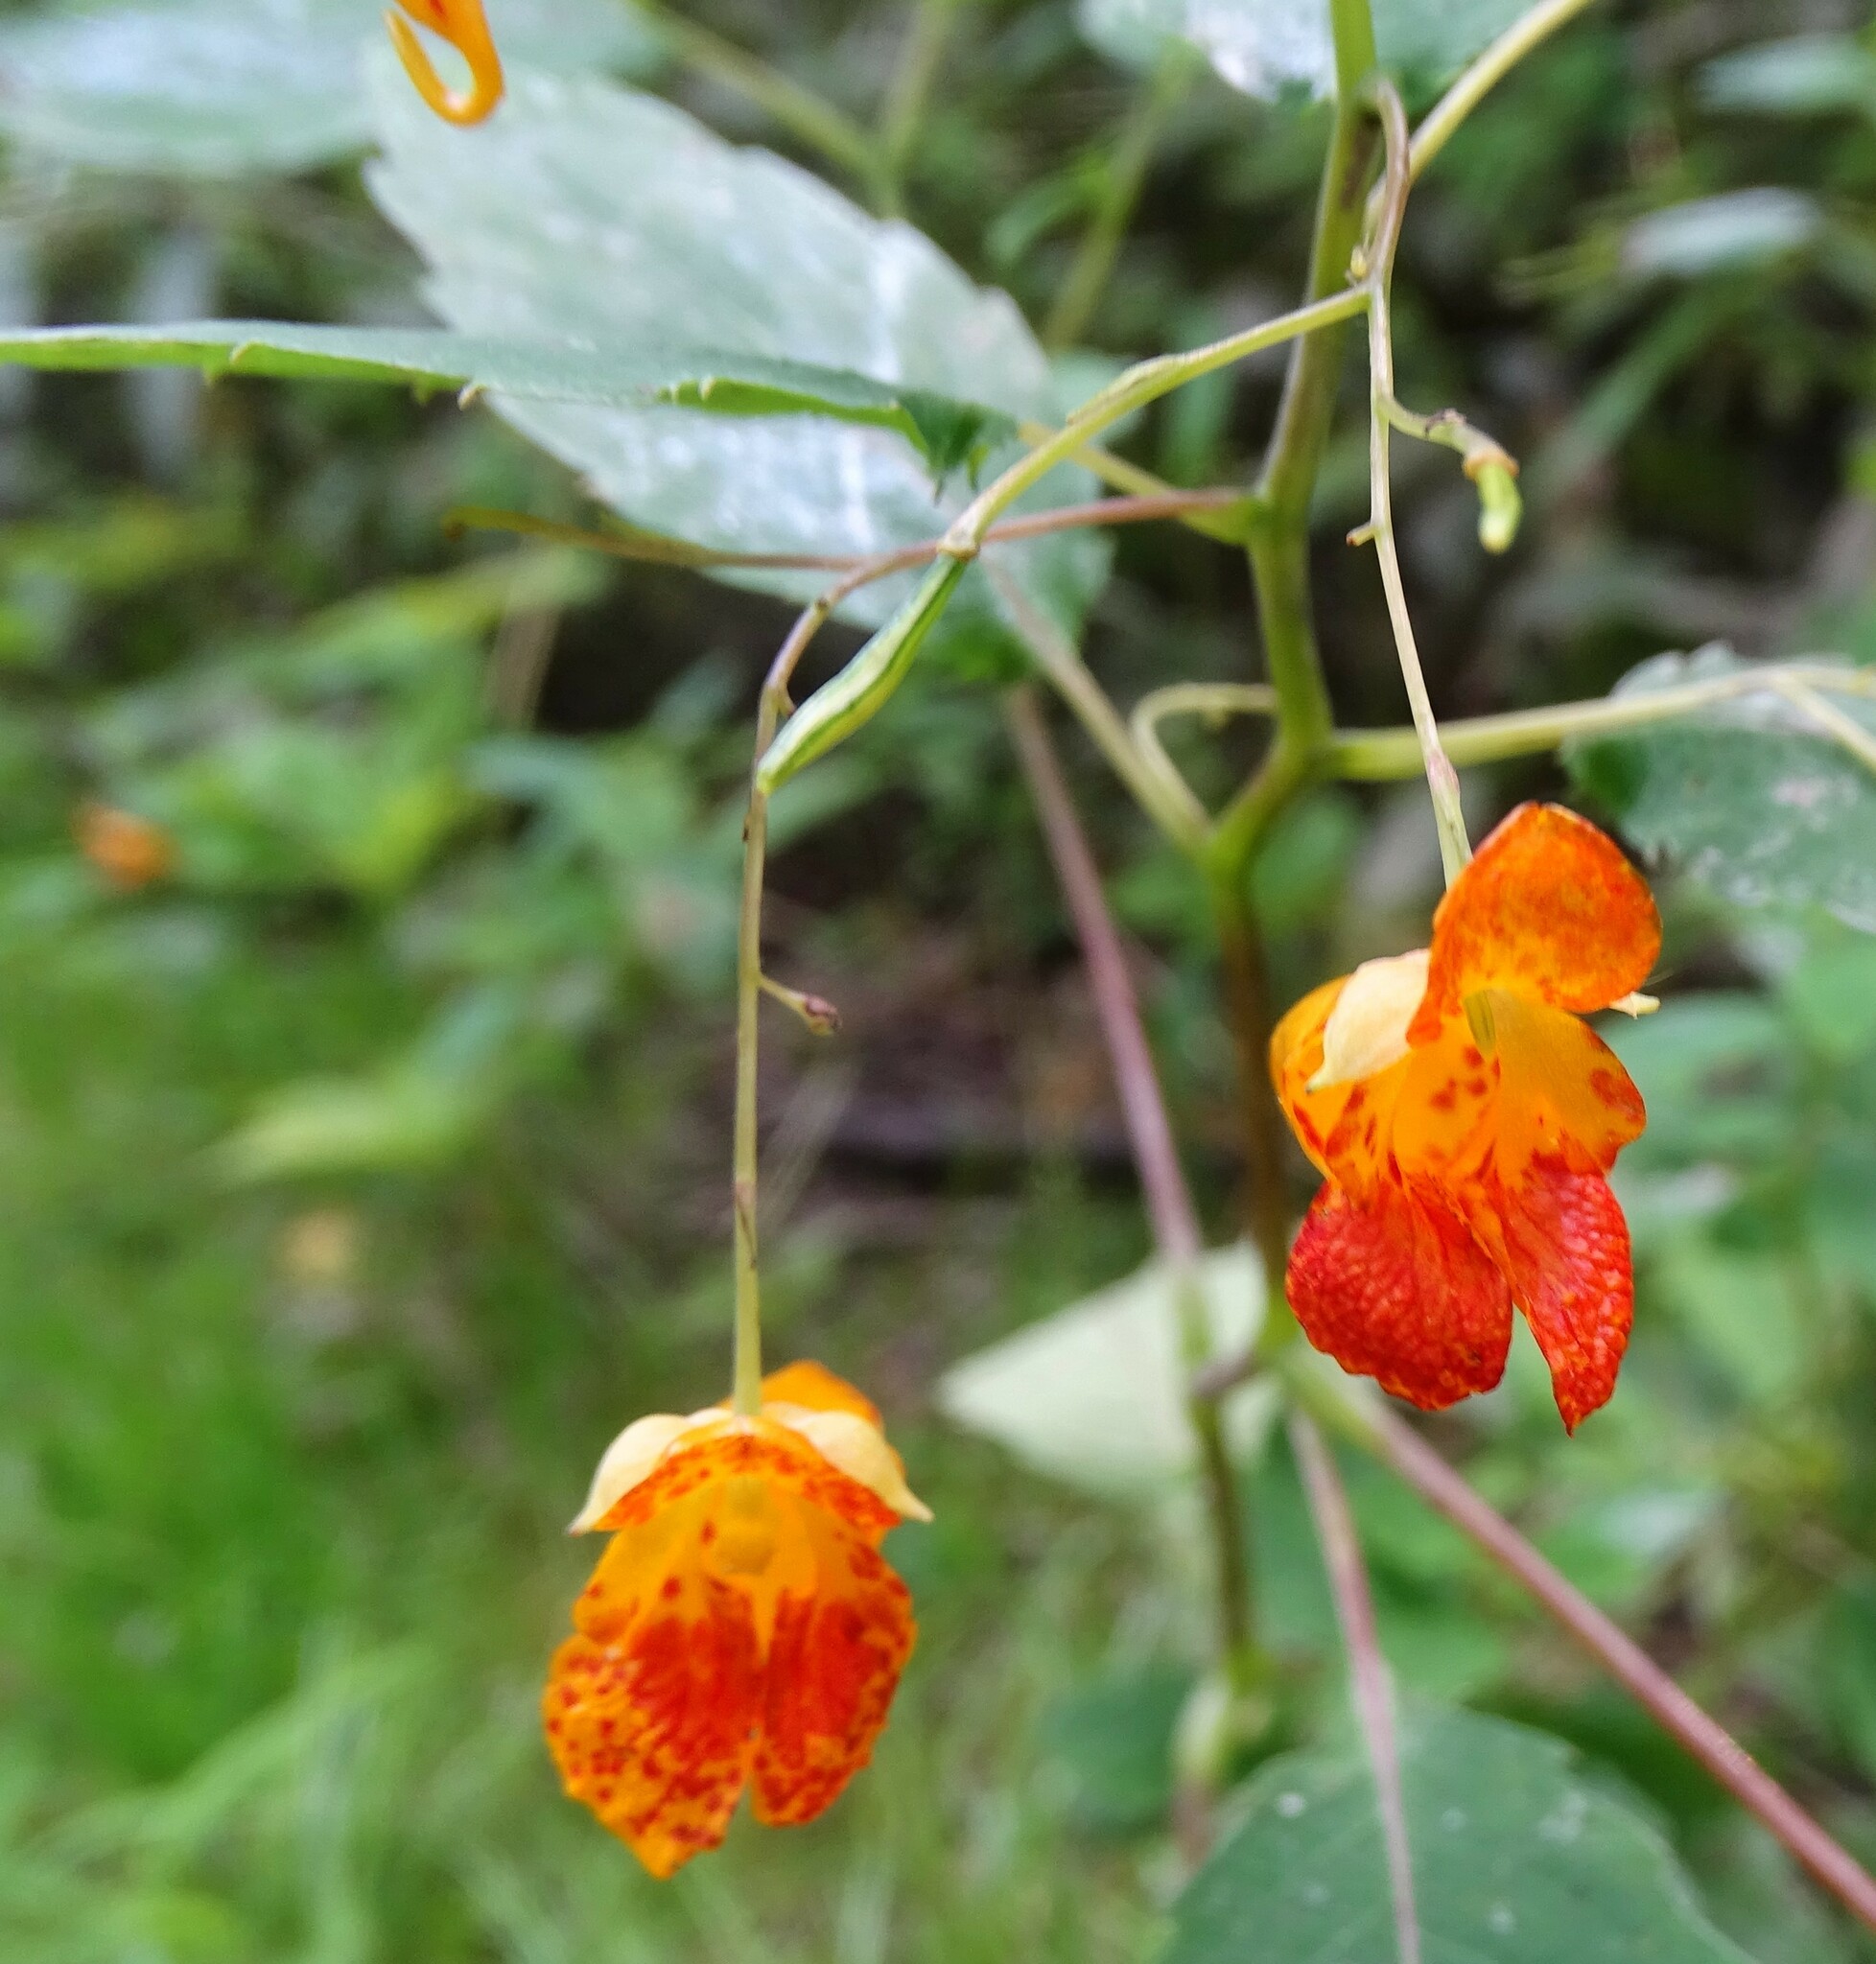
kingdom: Plantae
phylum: Tracheophyta
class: Magnoliopsida
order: Ericales
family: Balsaminaceae
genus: Impatiens
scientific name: Impatiens capensis
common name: Orange balsam
